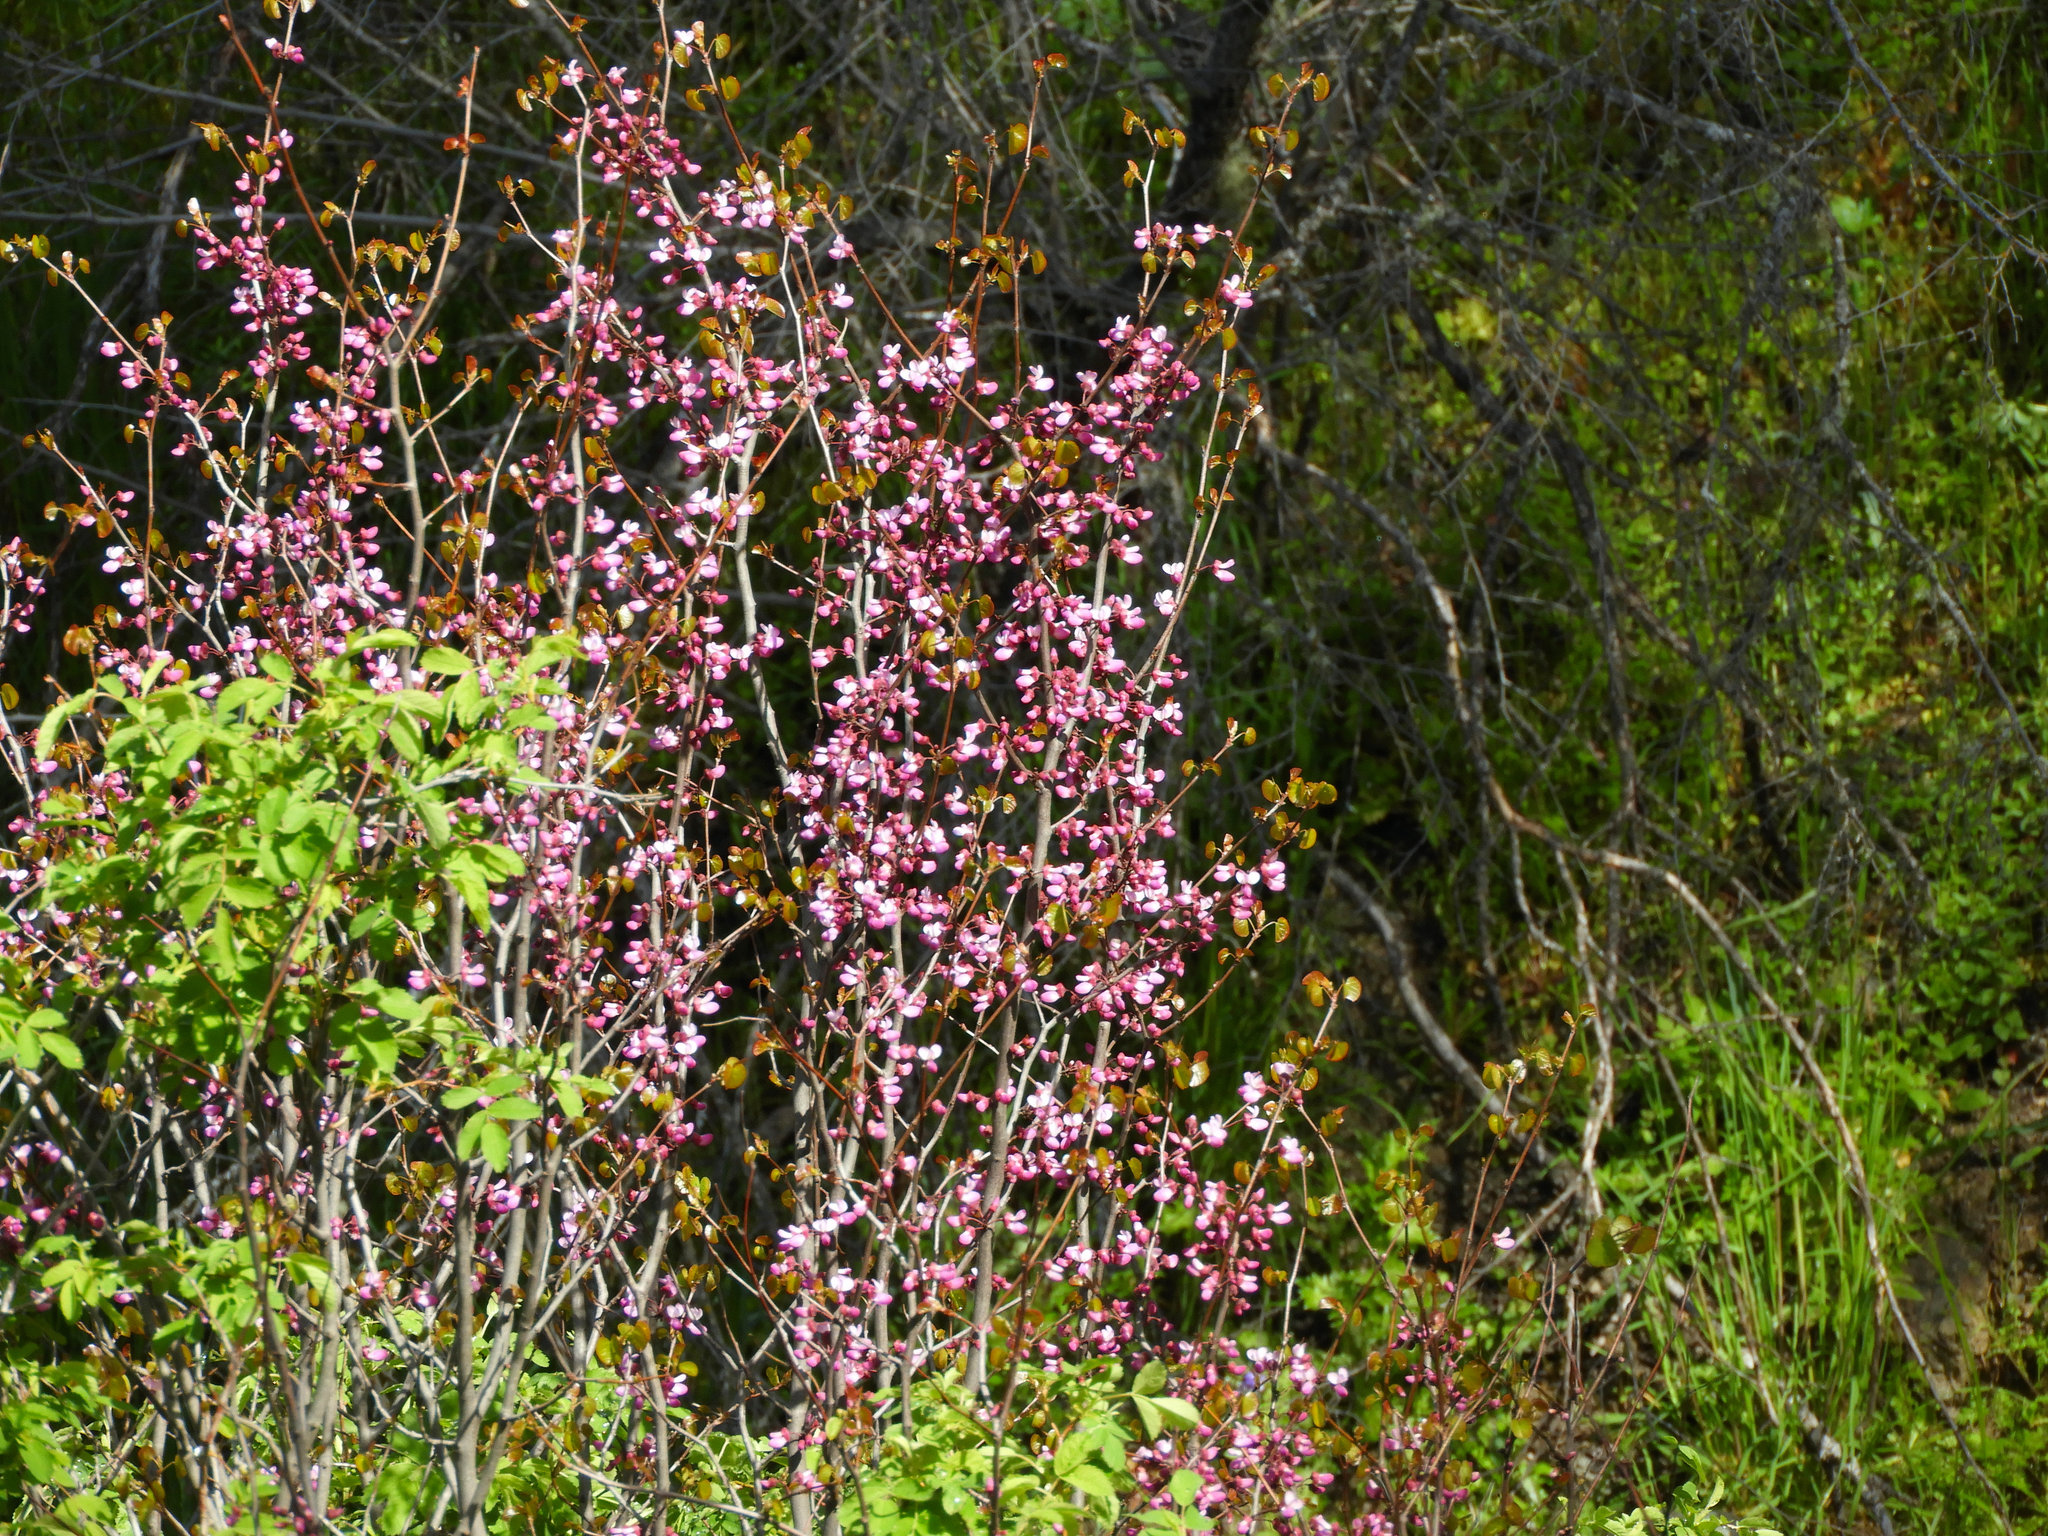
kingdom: Plantae
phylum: Tracheophyta
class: Magnoliopsida
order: Fabales
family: Fabaceae
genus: Cercis
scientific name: Cercis occidentalis
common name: California redbud
